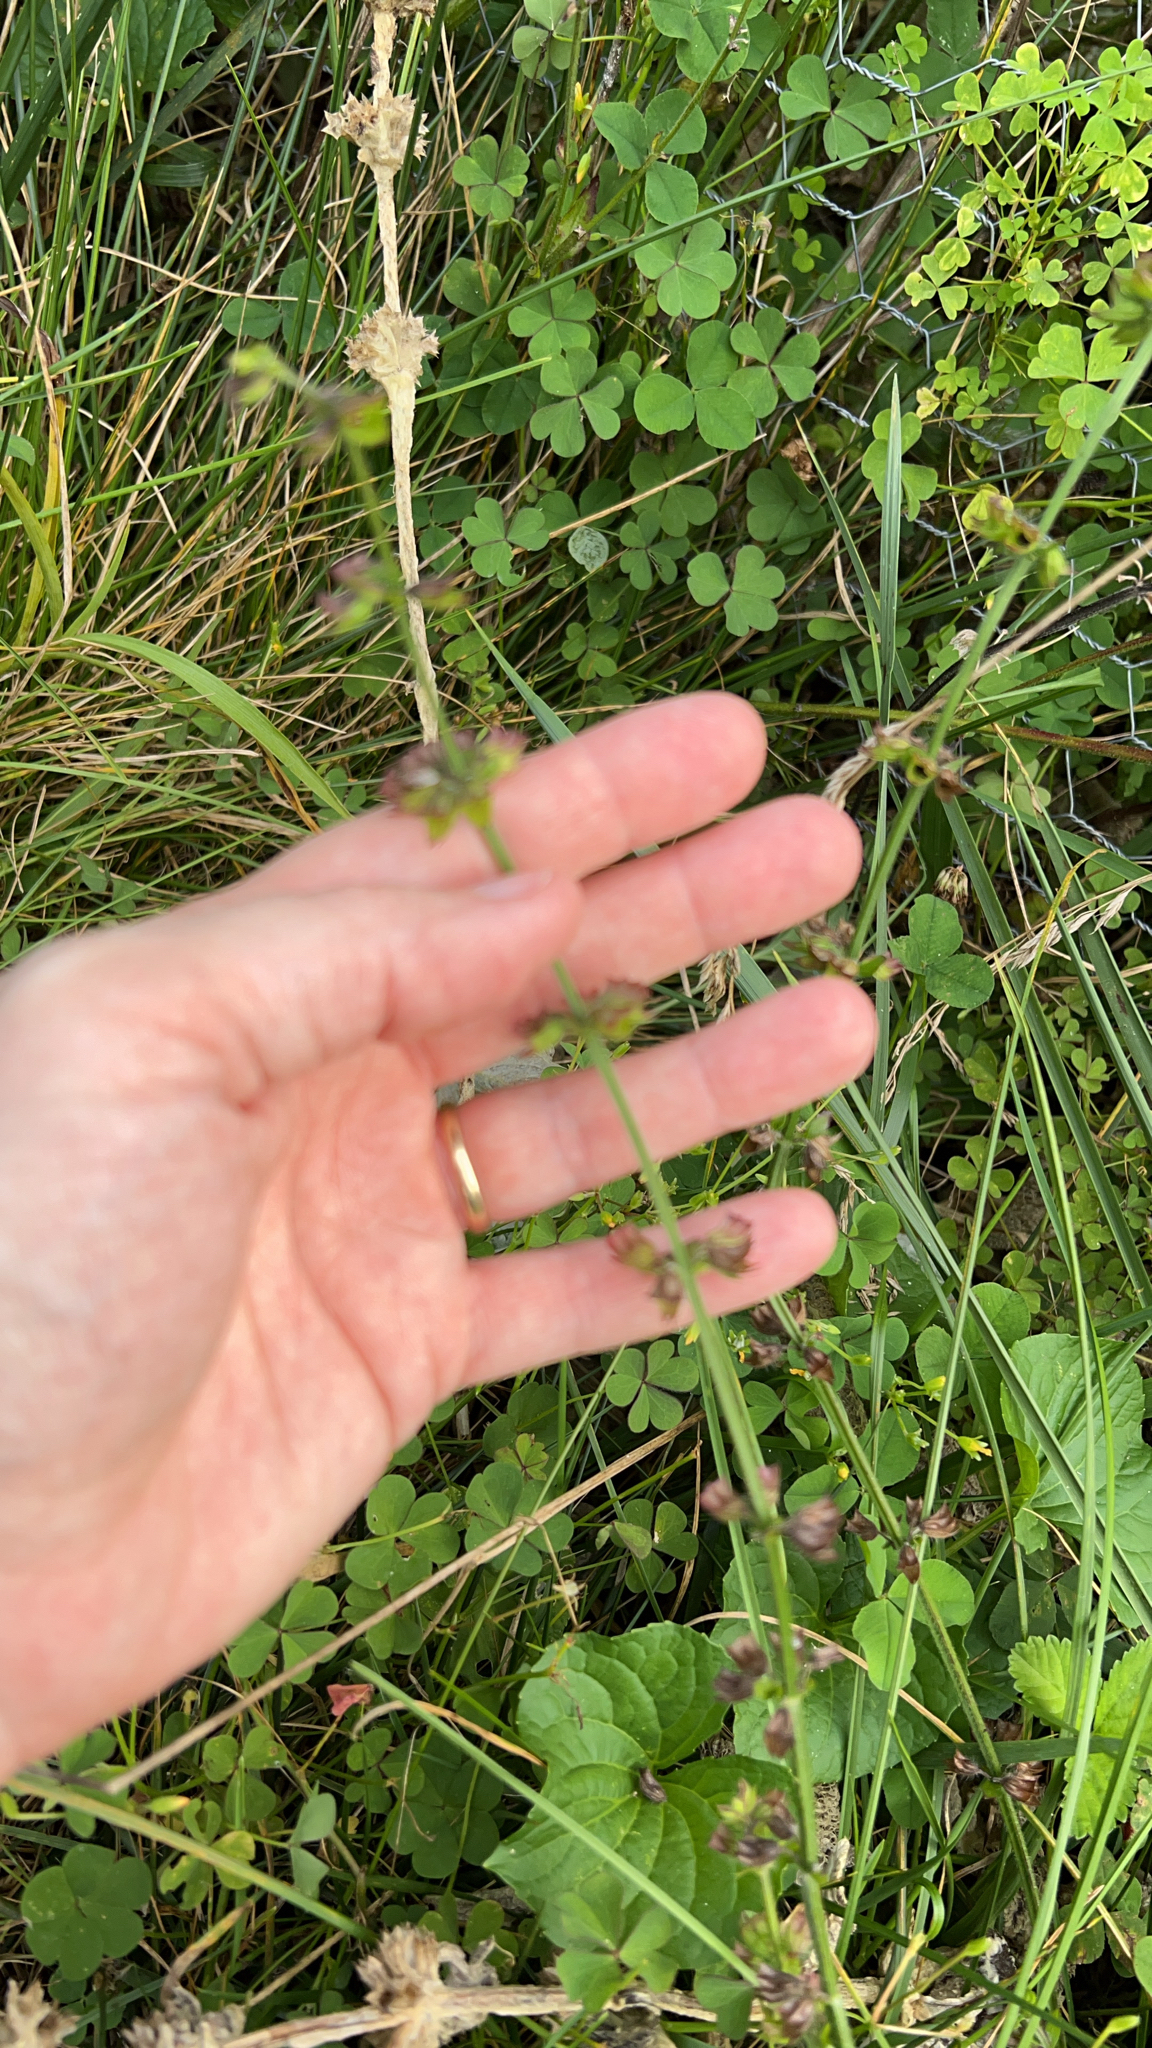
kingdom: Plantae
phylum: Tracheophyta
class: Magnoliopsida
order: Lamiales
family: Lamiaceae
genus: Salvia
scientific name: Salvia lyrata
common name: Cancerweed
